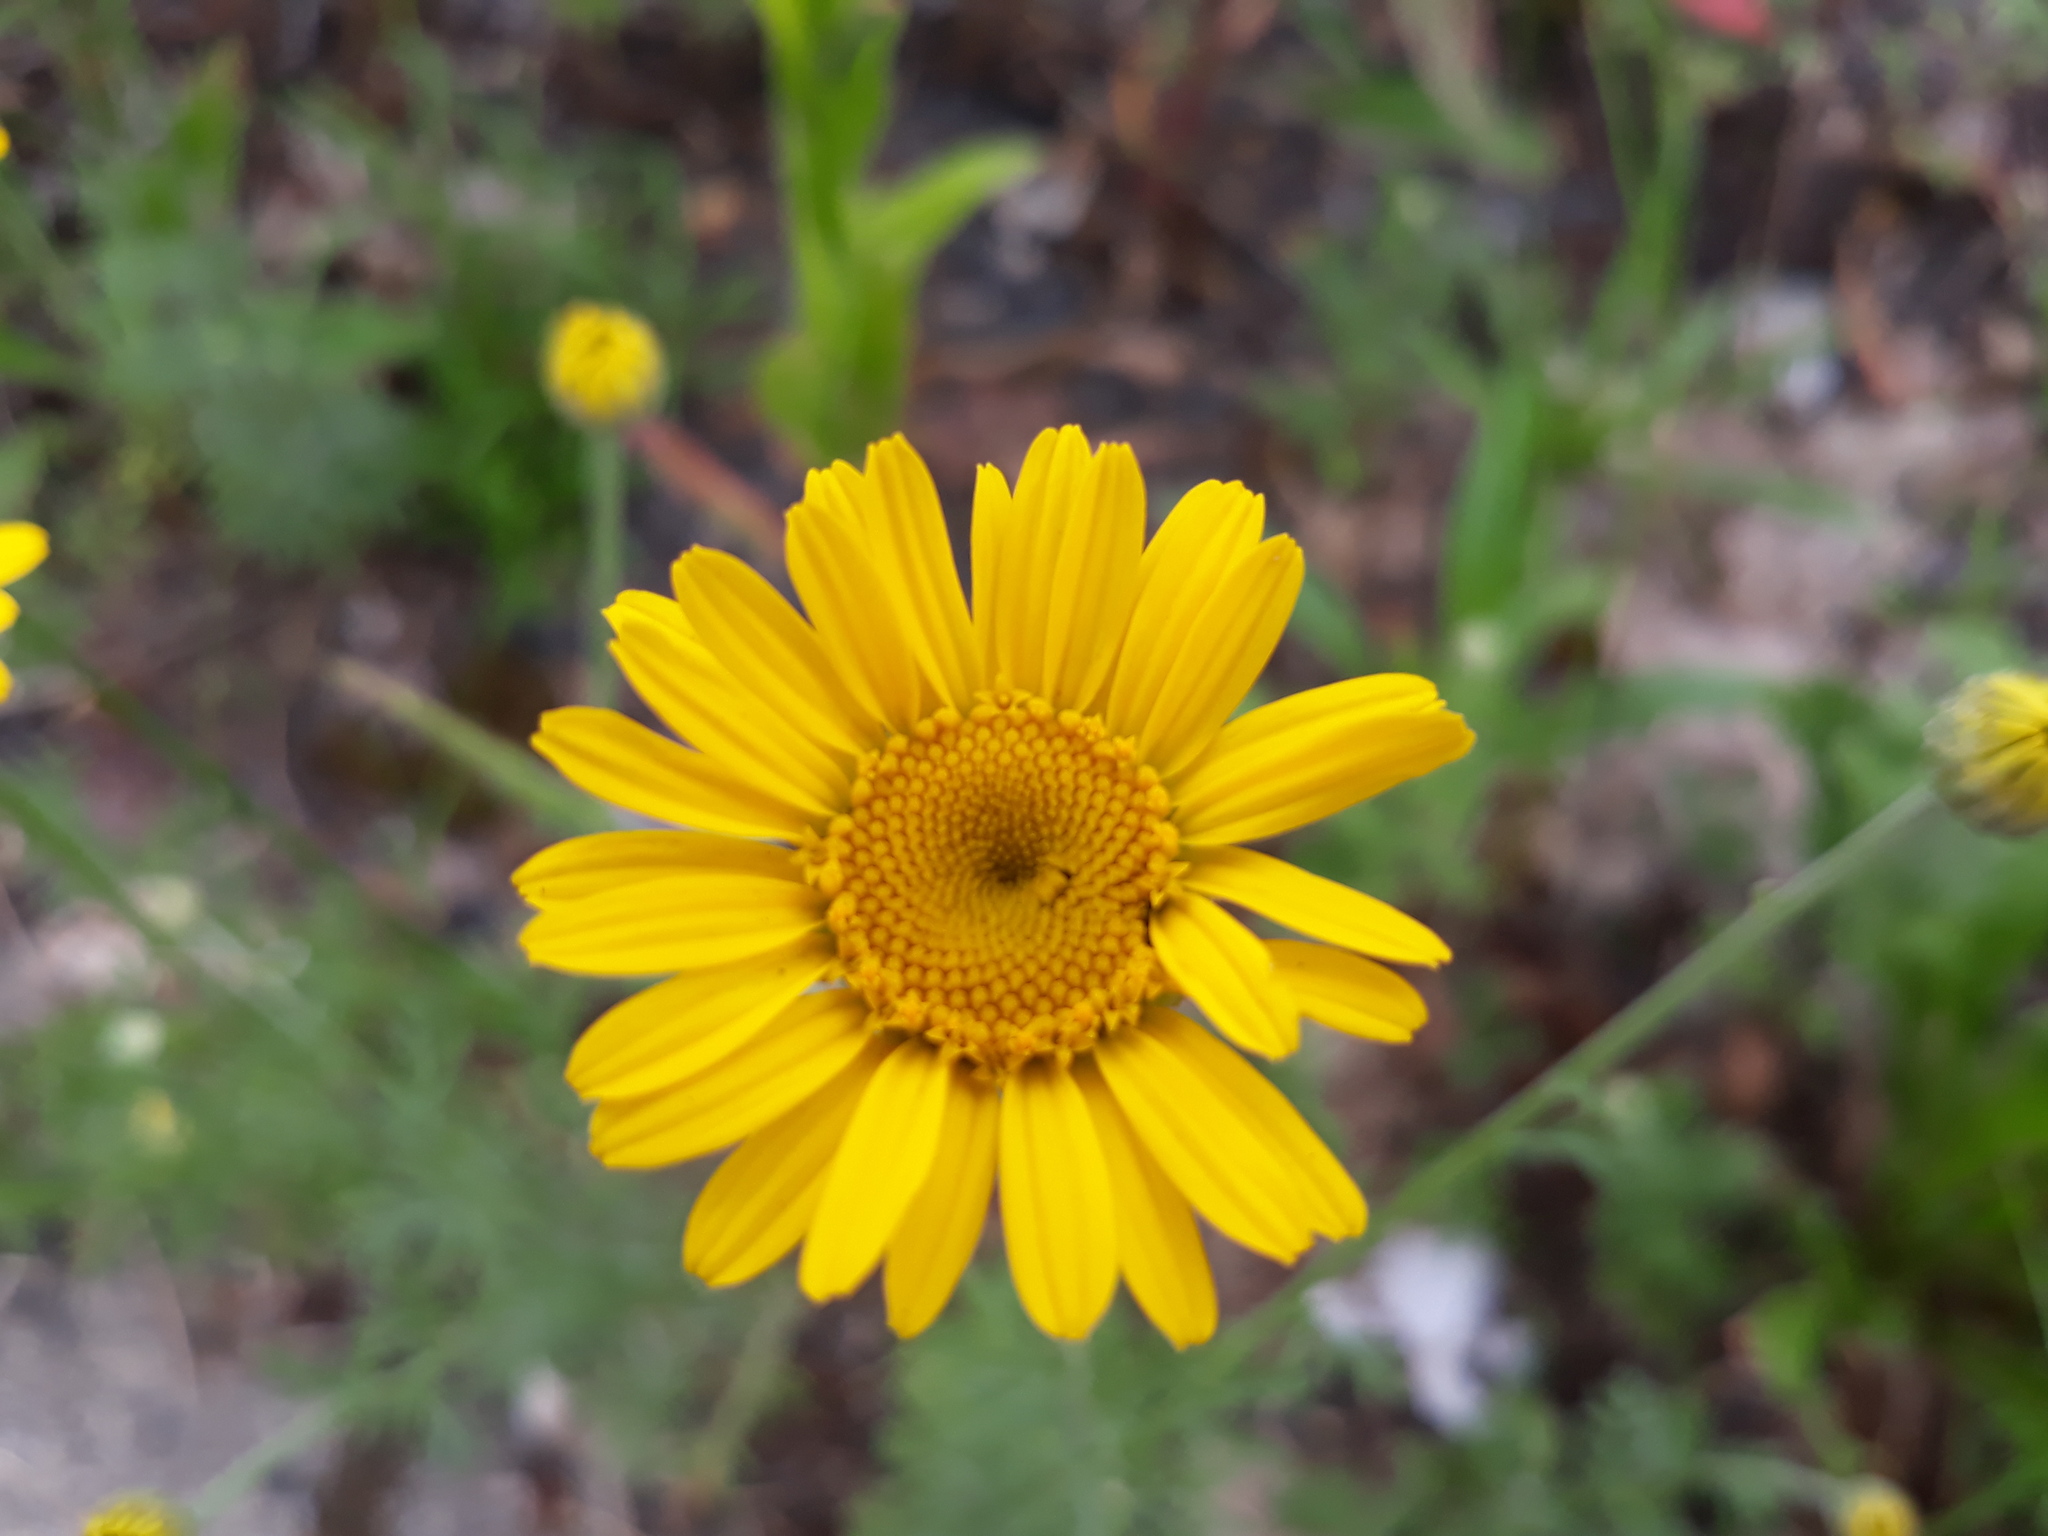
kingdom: Plantae
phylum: Tracheophyta
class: Magnoliopsida
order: Asterales
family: Asteraceae
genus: Cota
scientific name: Cota tinctoria
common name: Golden chamomile
